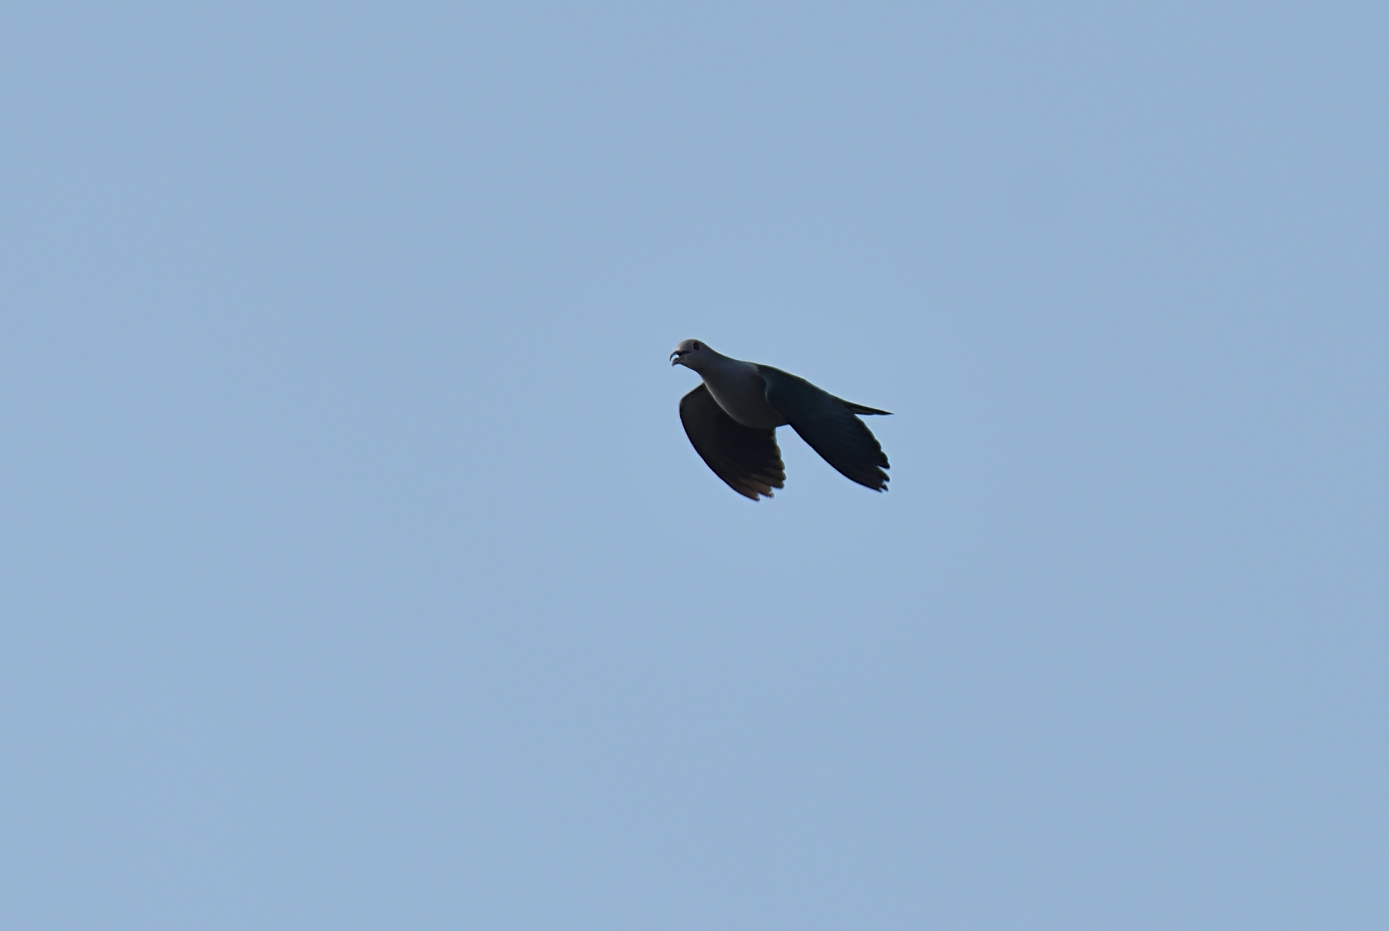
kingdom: Animalia
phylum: Chordata
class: Aves
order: Columbiformes
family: Columbidae
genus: Ducula
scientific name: Ducula aenea
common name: Green imperial pigeon
